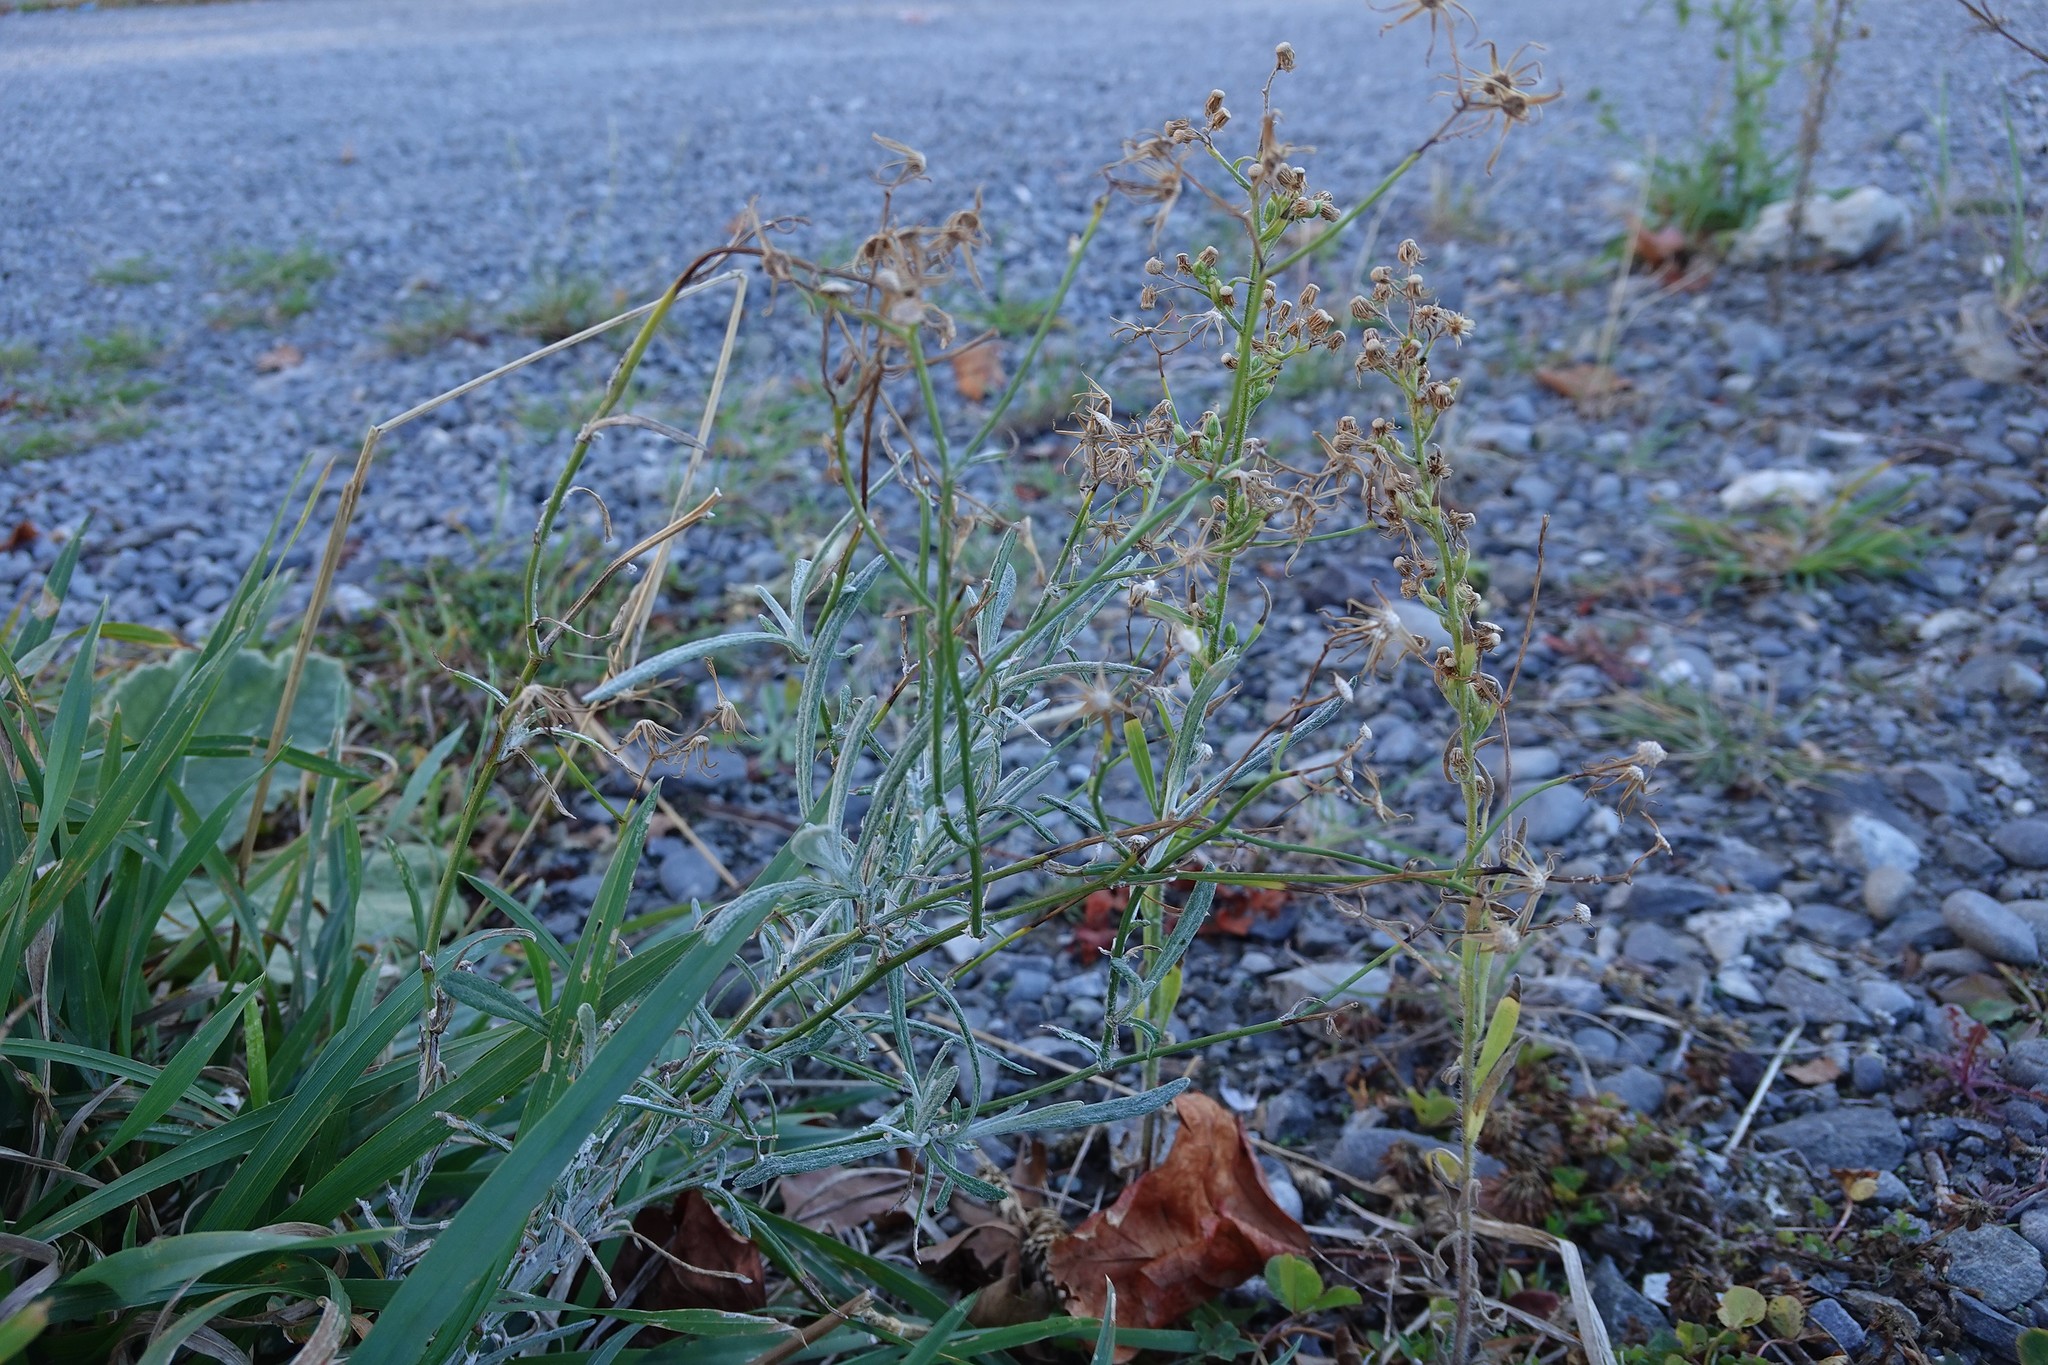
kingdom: Plantae
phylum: Tracheophyta
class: Magnoliopsida
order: Asterales
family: Asteraceae
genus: Senecio
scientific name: Senecio quadridentatus
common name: Cotton fireweed
